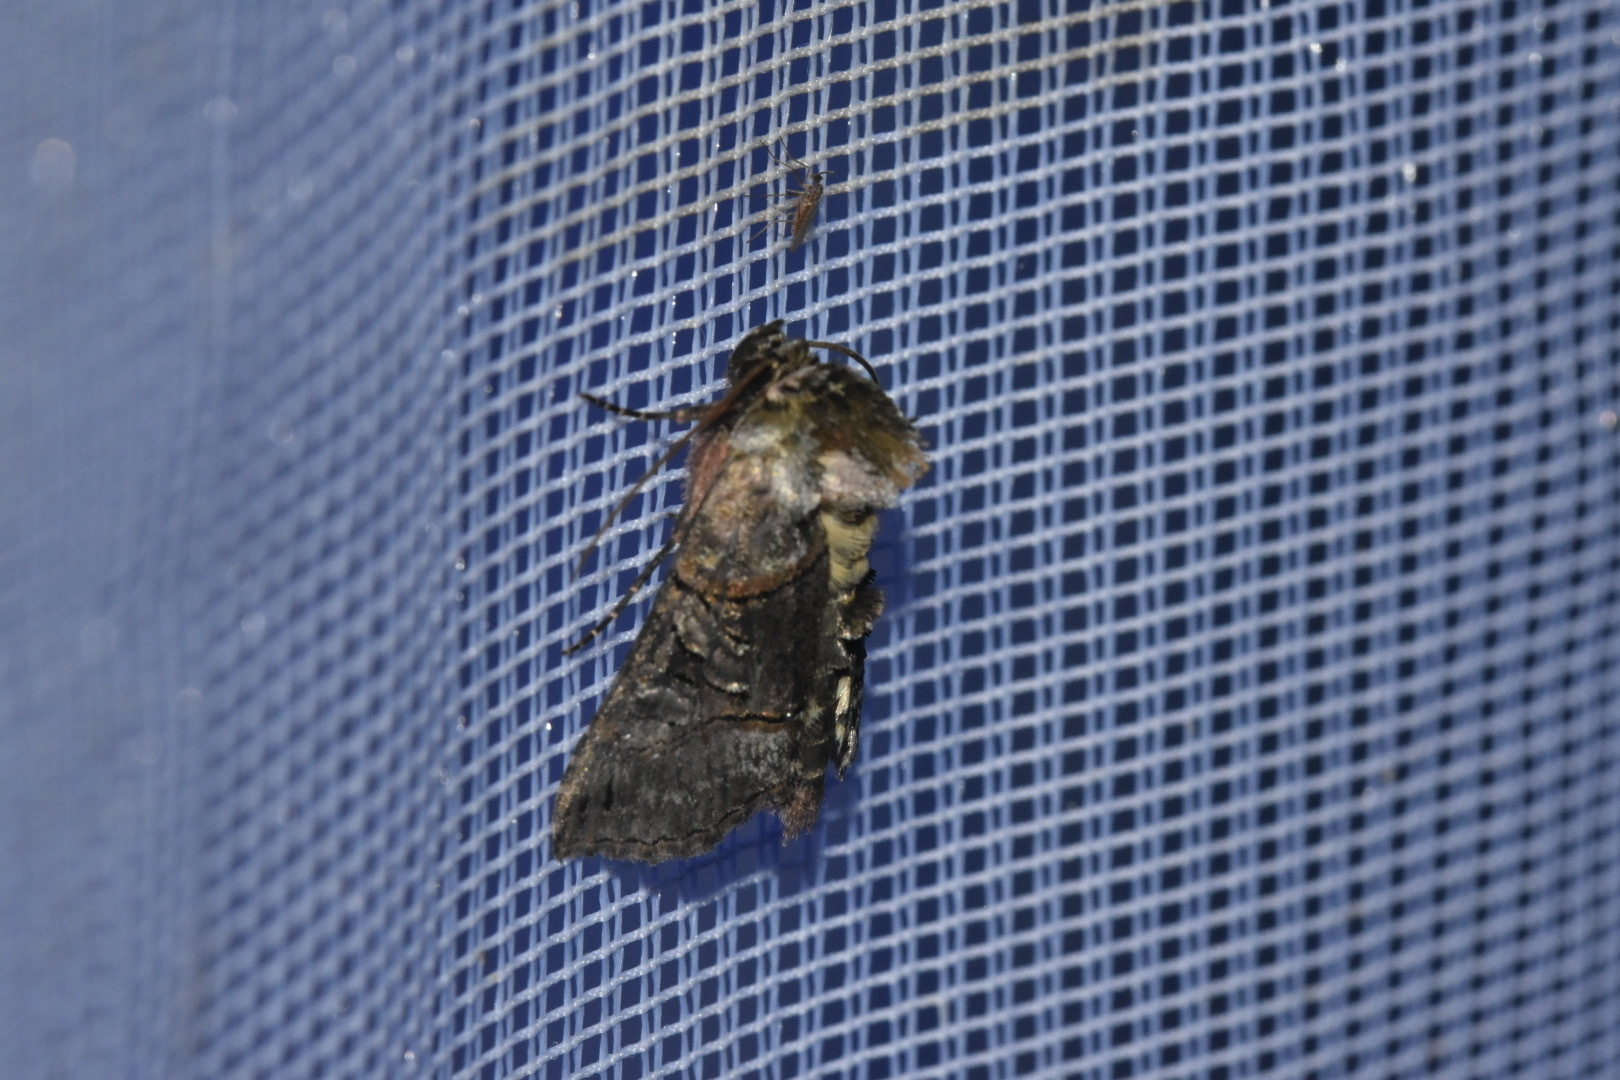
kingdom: Animalia
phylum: Arthropoda
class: Insecta
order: Lepidoptera
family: Noctuidae
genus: Abrostola
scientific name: Abrostola tripartita
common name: Spectacle
